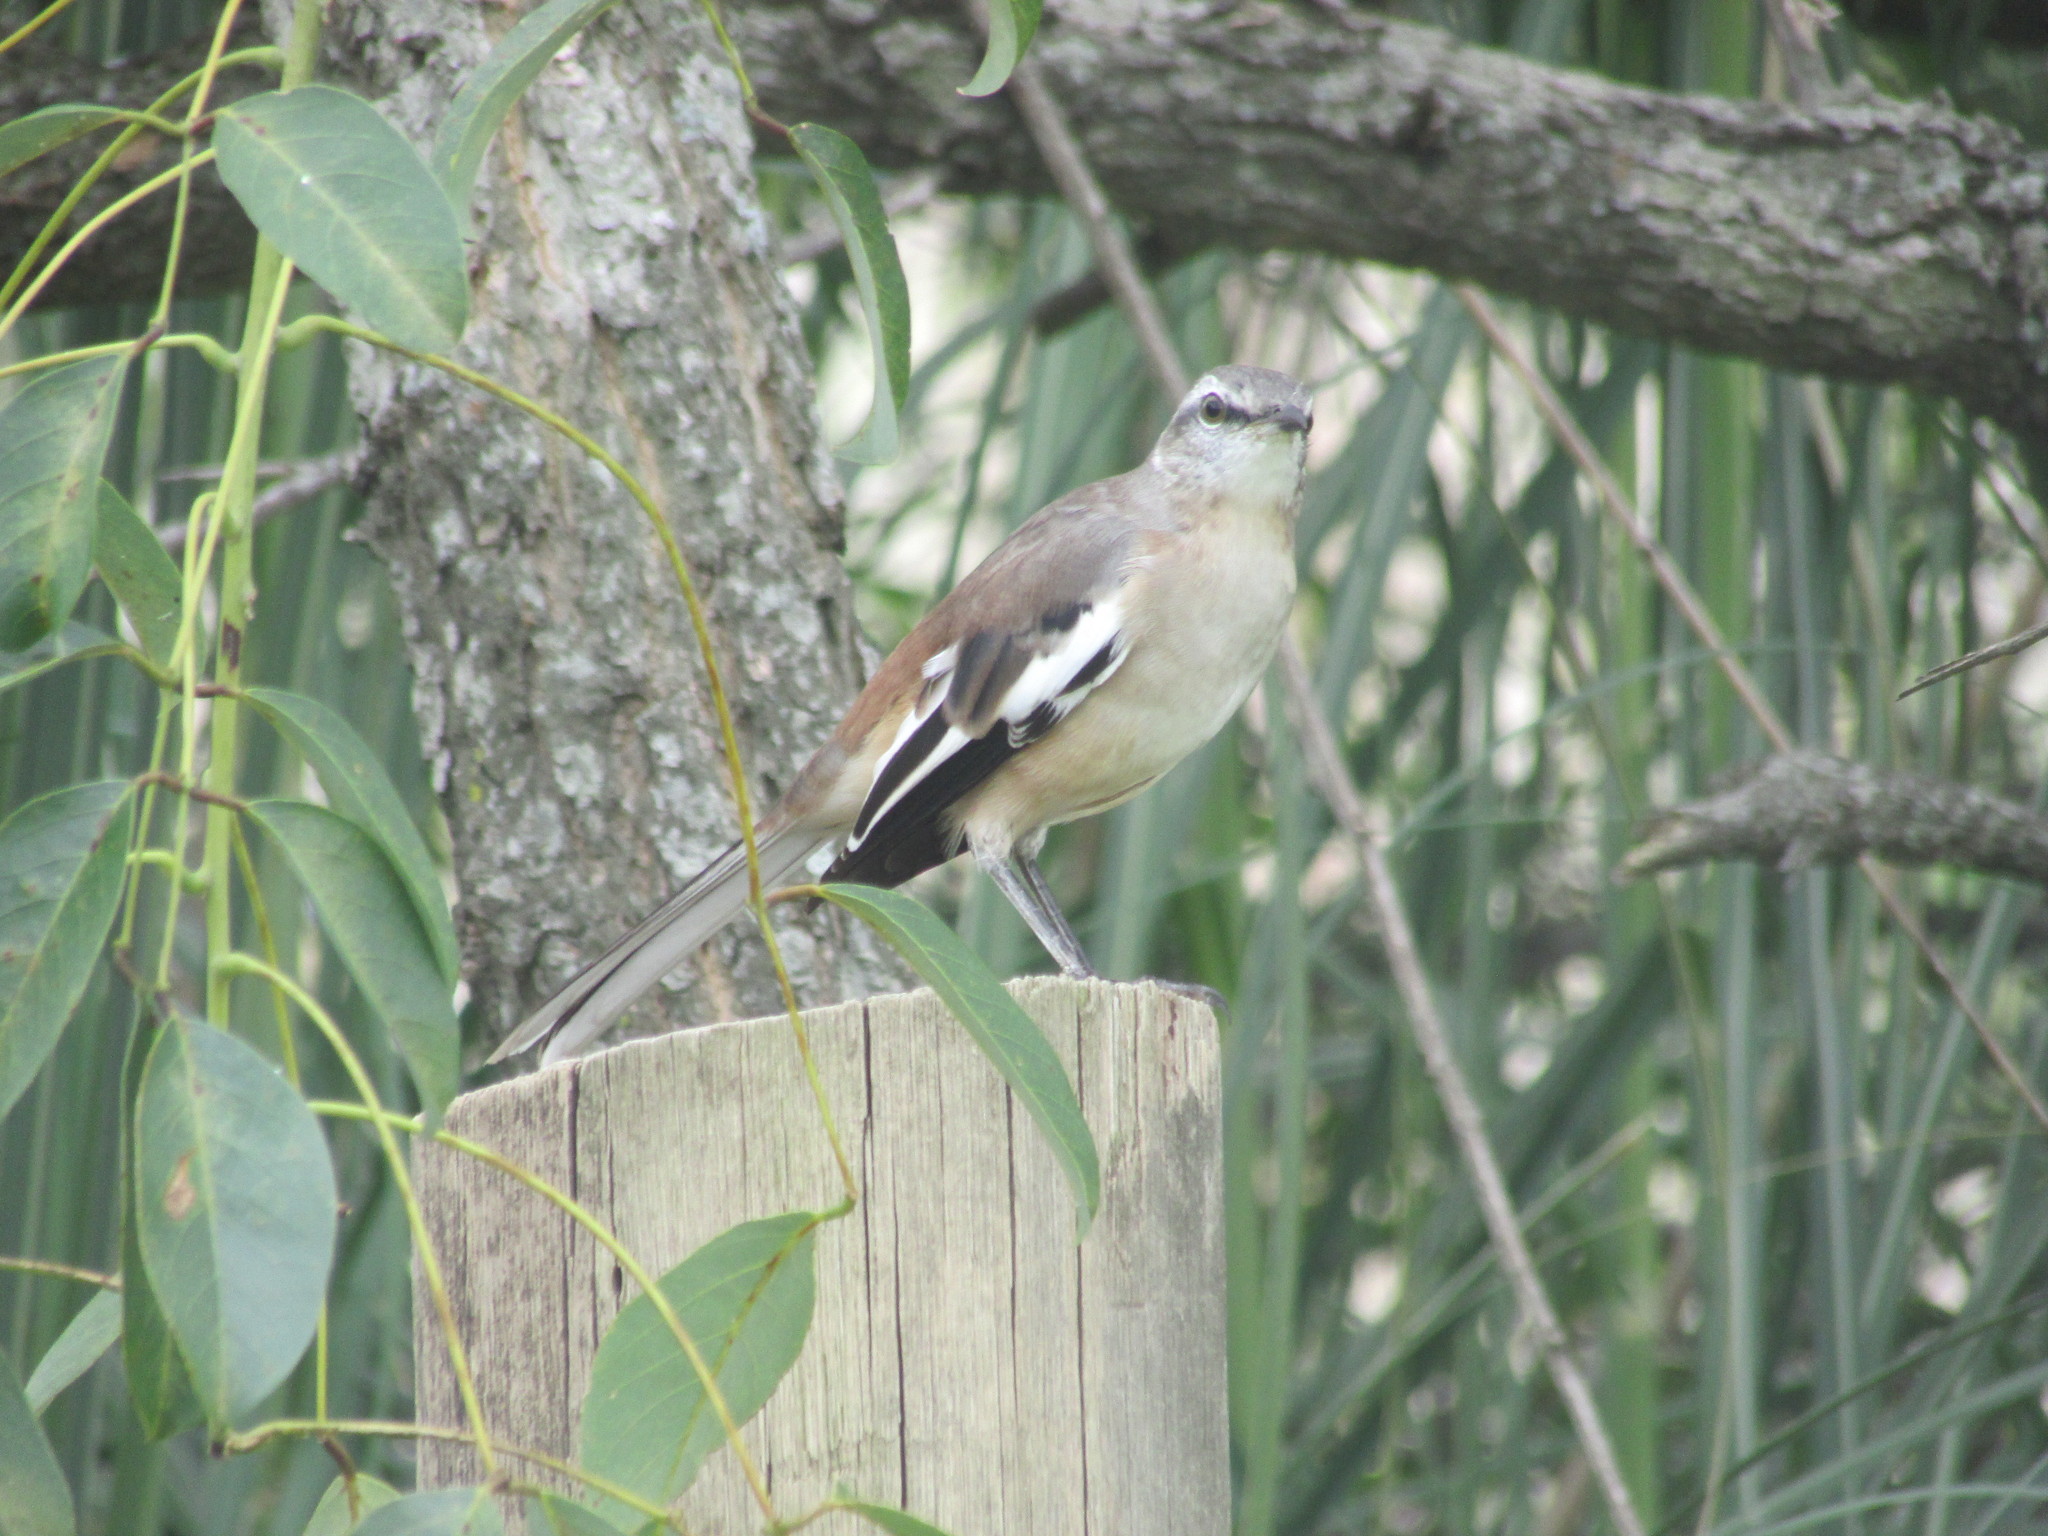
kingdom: Animalia
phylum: Chordata
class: Aves
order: Passeriformes
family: Mimidae
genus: Mimus
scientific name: Mimus triurus
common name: White-banded mockingbird
